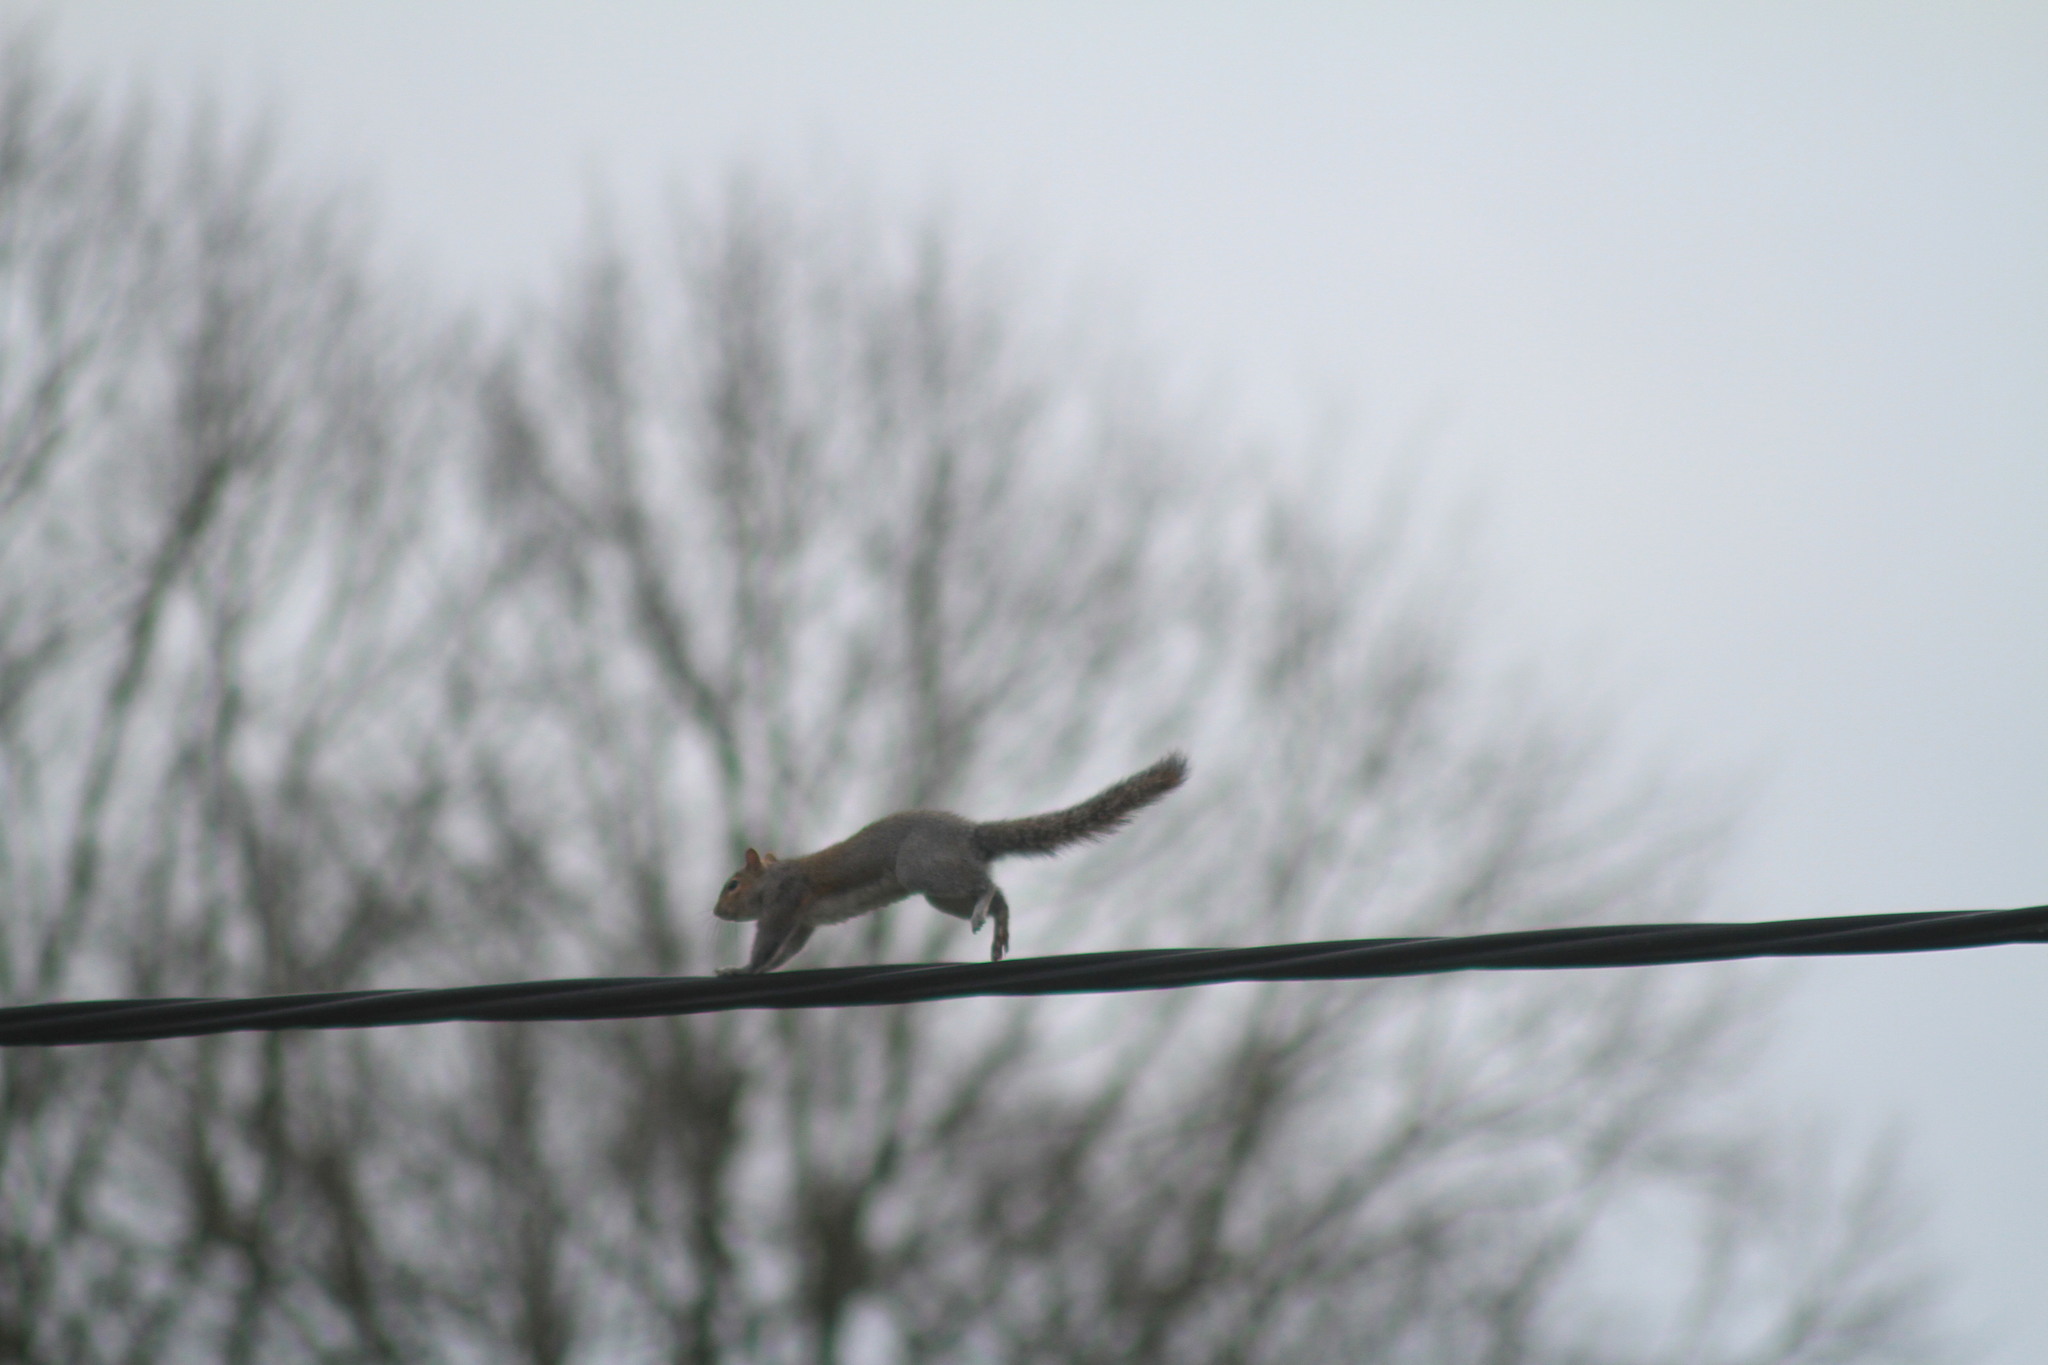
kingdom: Animalia
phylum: Chordata
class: Mammalia
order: Rodentia
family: Sciuridae
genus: Sciurus
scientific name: Sciurus carolinensis
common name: Eastern gray squirrel
